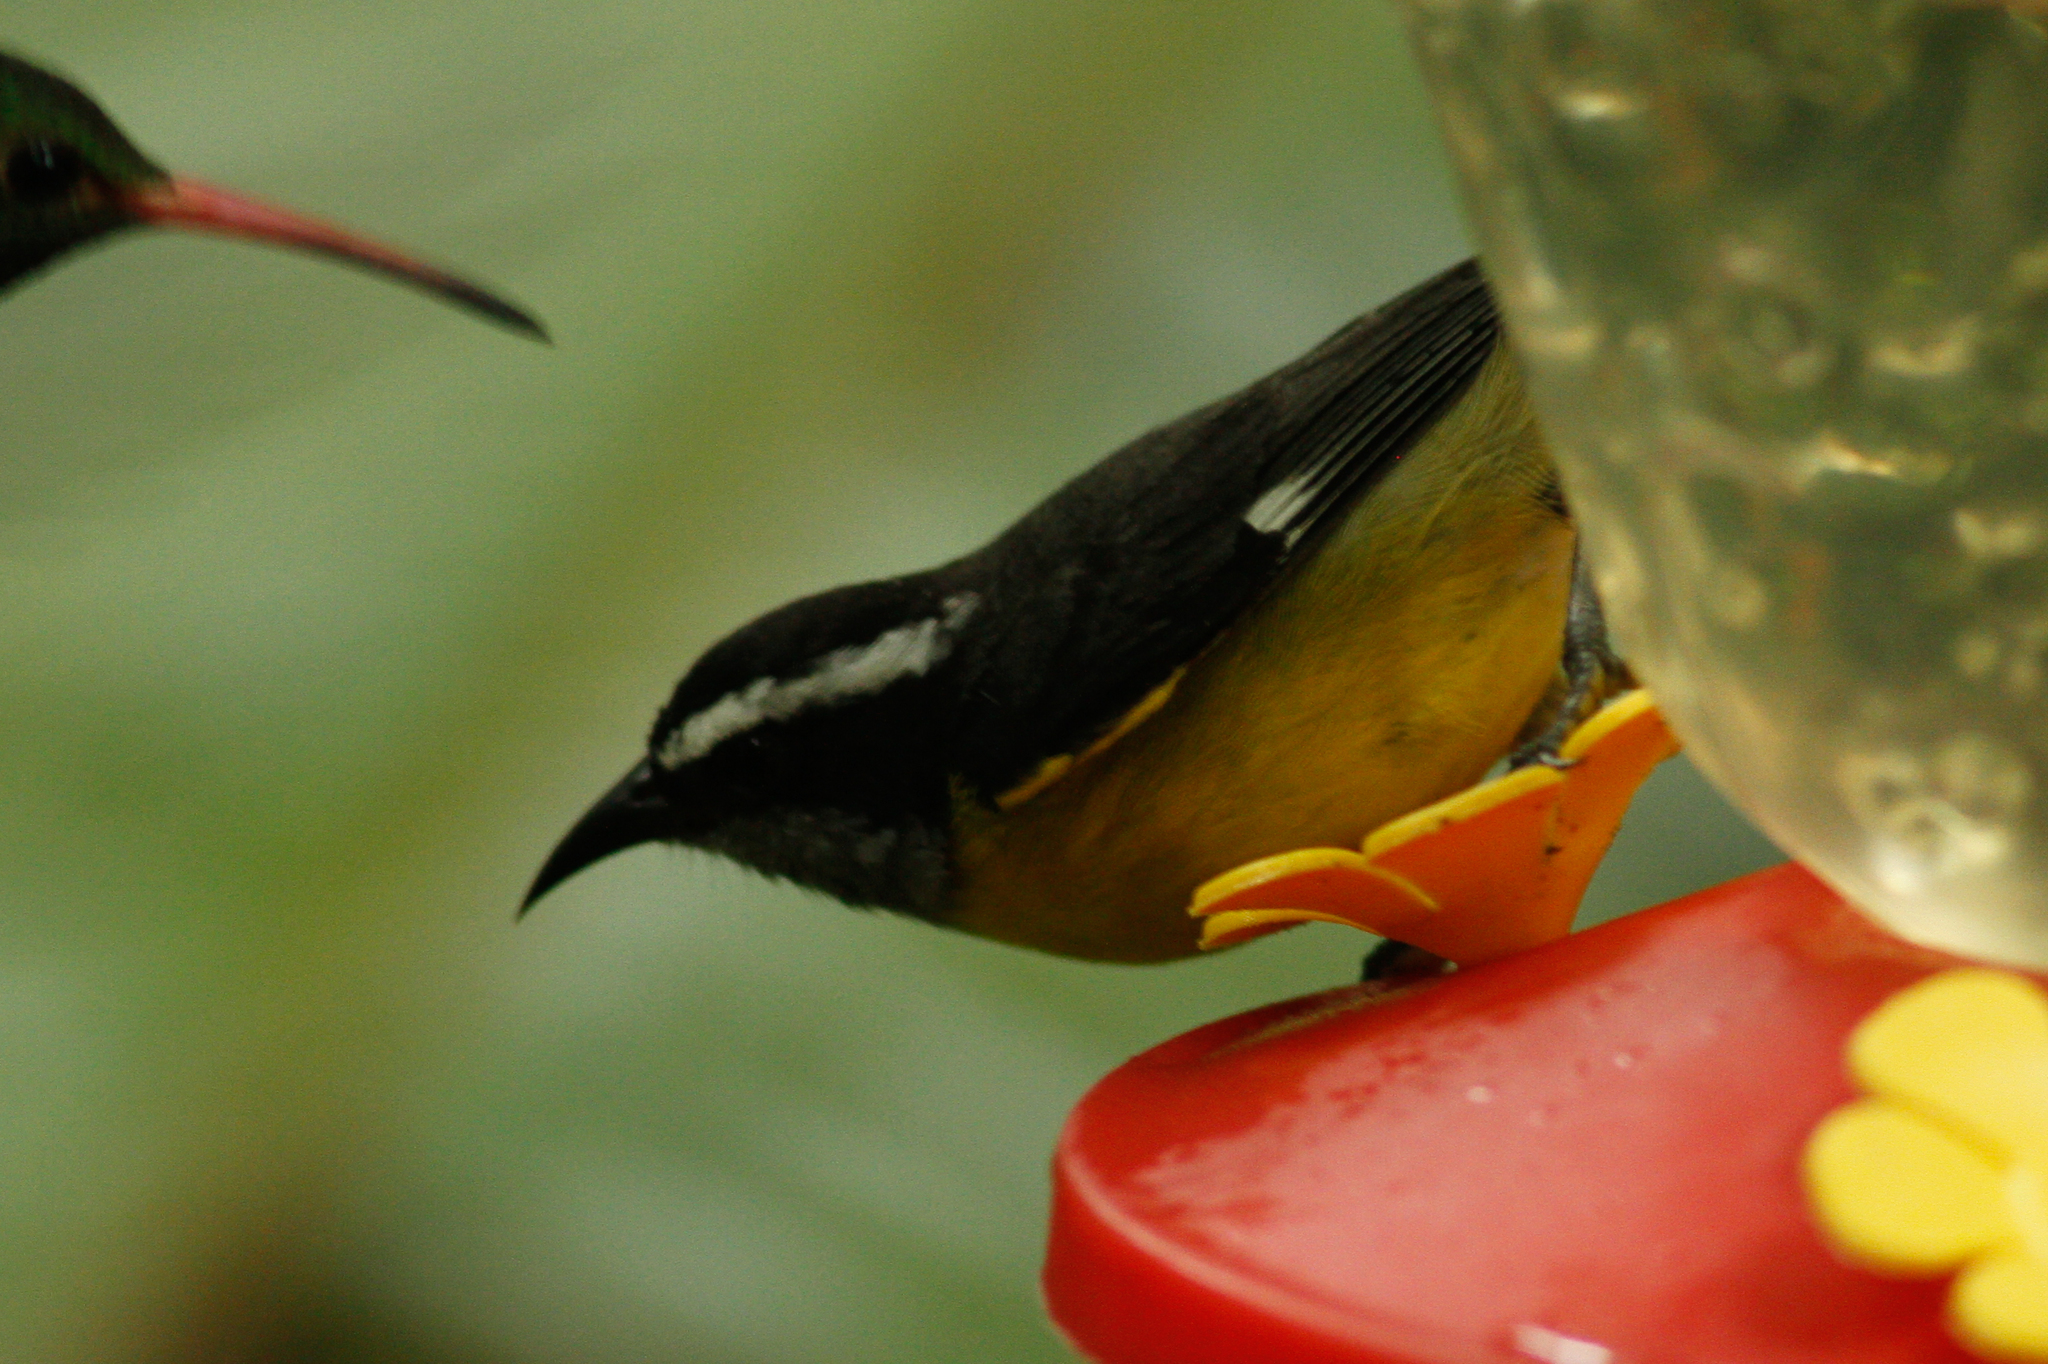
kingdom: Animalia
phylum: Chordata
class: Aves
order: Passeriformes
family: Thraupidae
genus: Coereba
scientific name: Coereba flaveola
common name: Bananaquit
